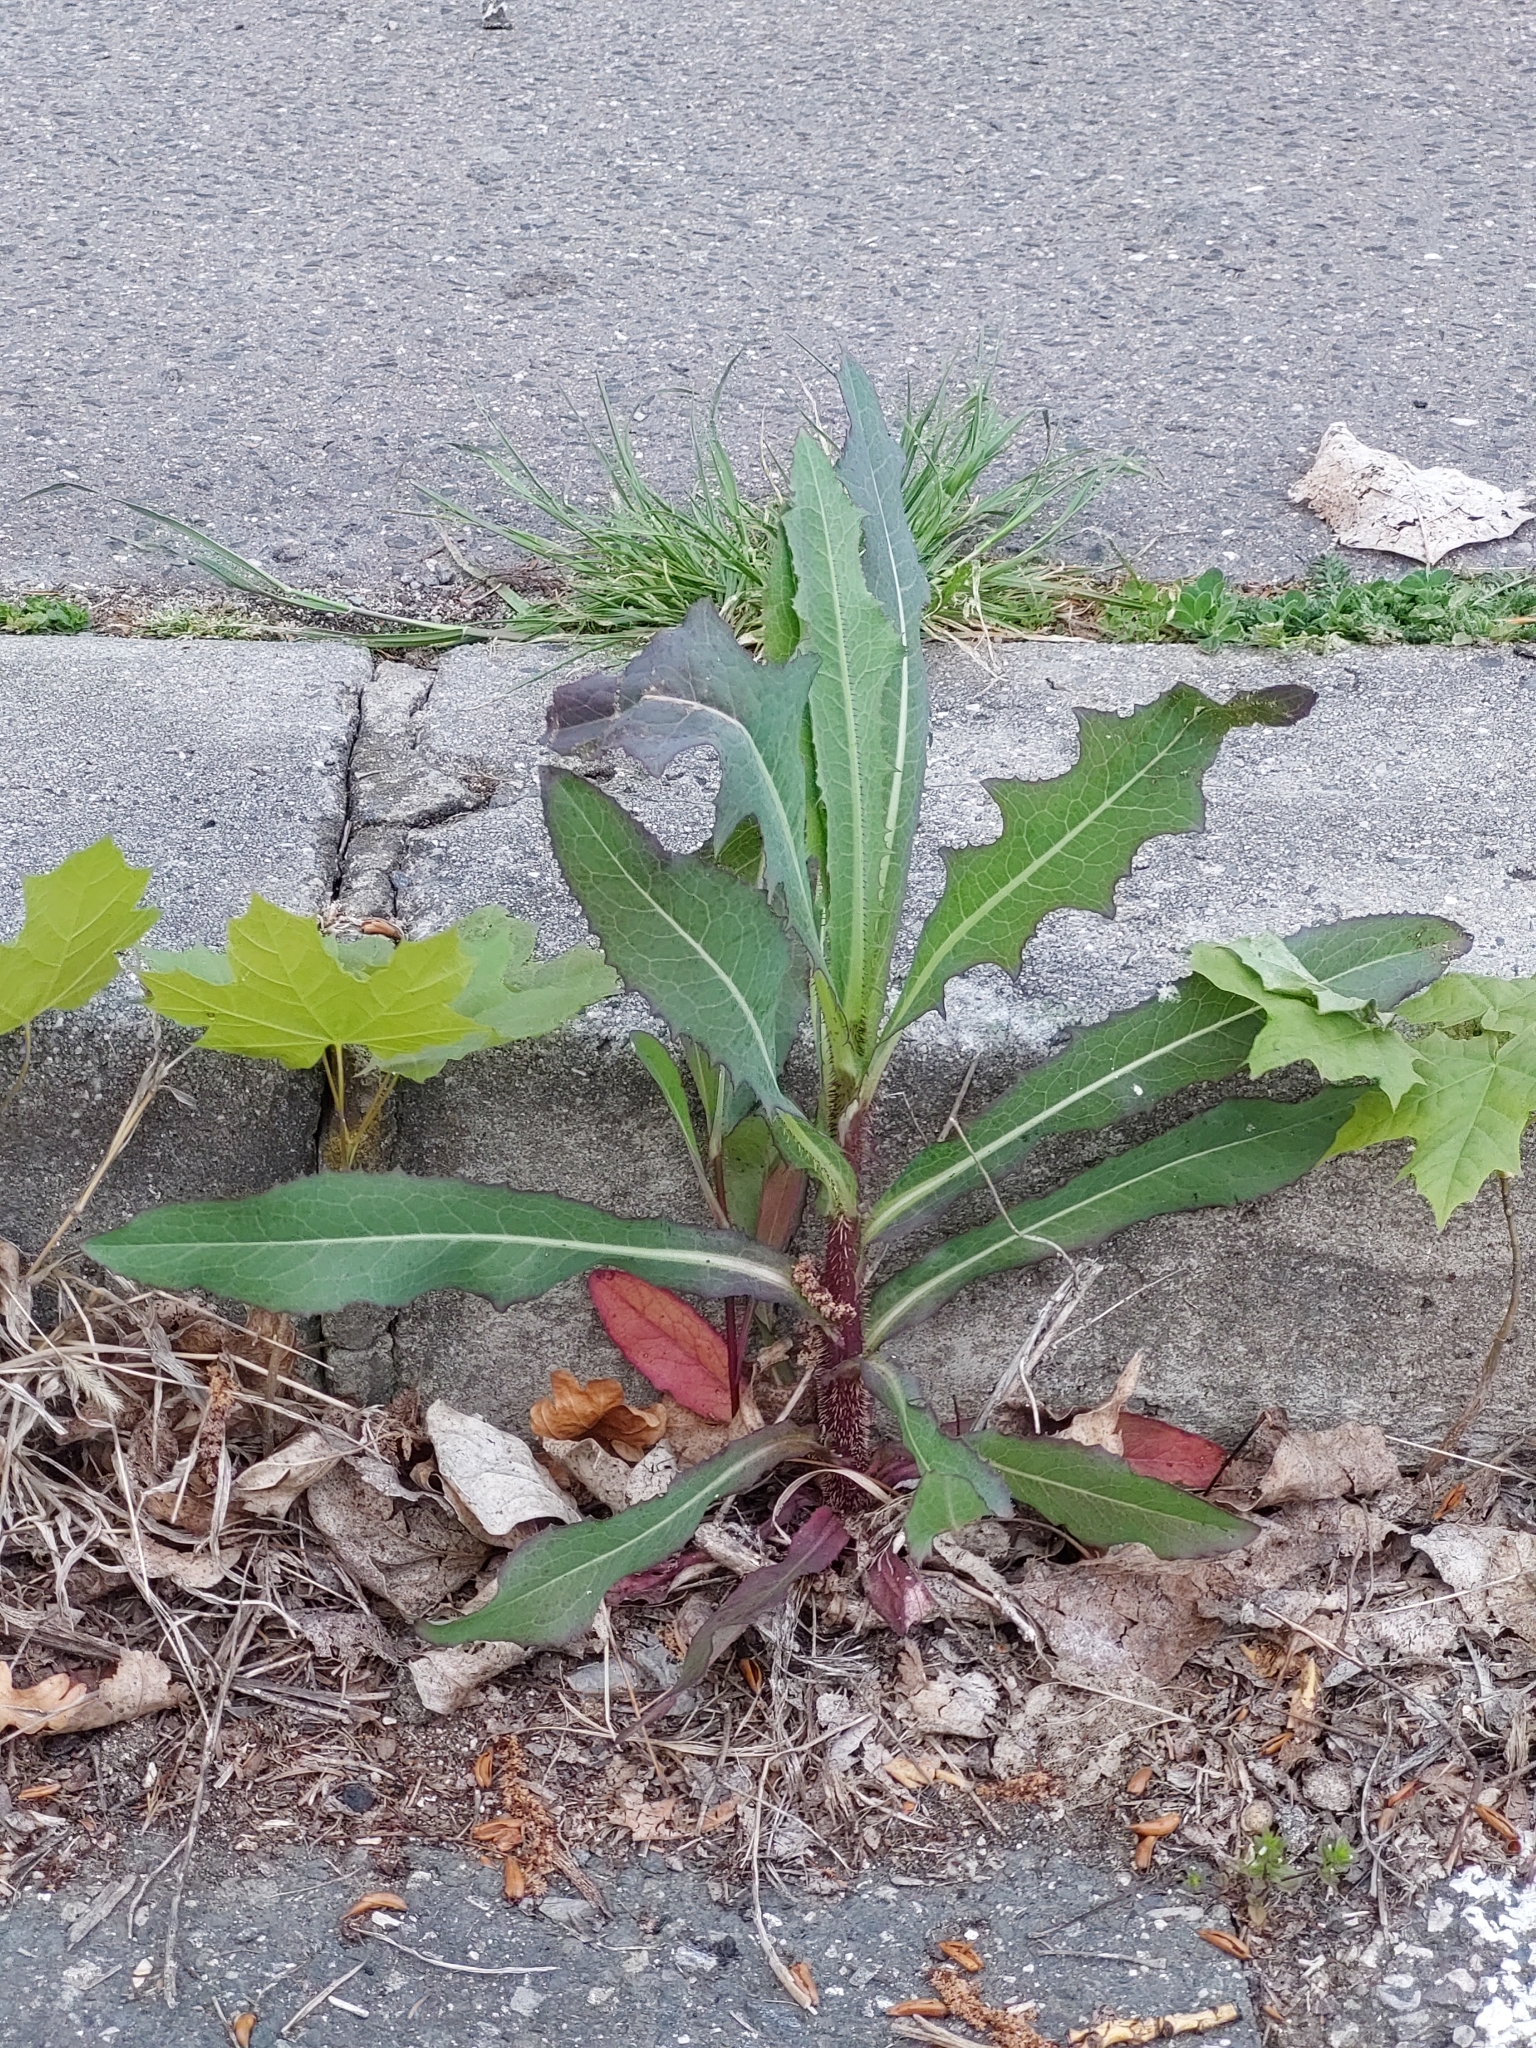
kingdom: Plantae
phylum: Tracheophyta
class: Magnoliopsida
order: Asterales
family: Asteraceae
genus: Lactuca
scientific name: Lactuca serriola
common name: Prickly lettuce
